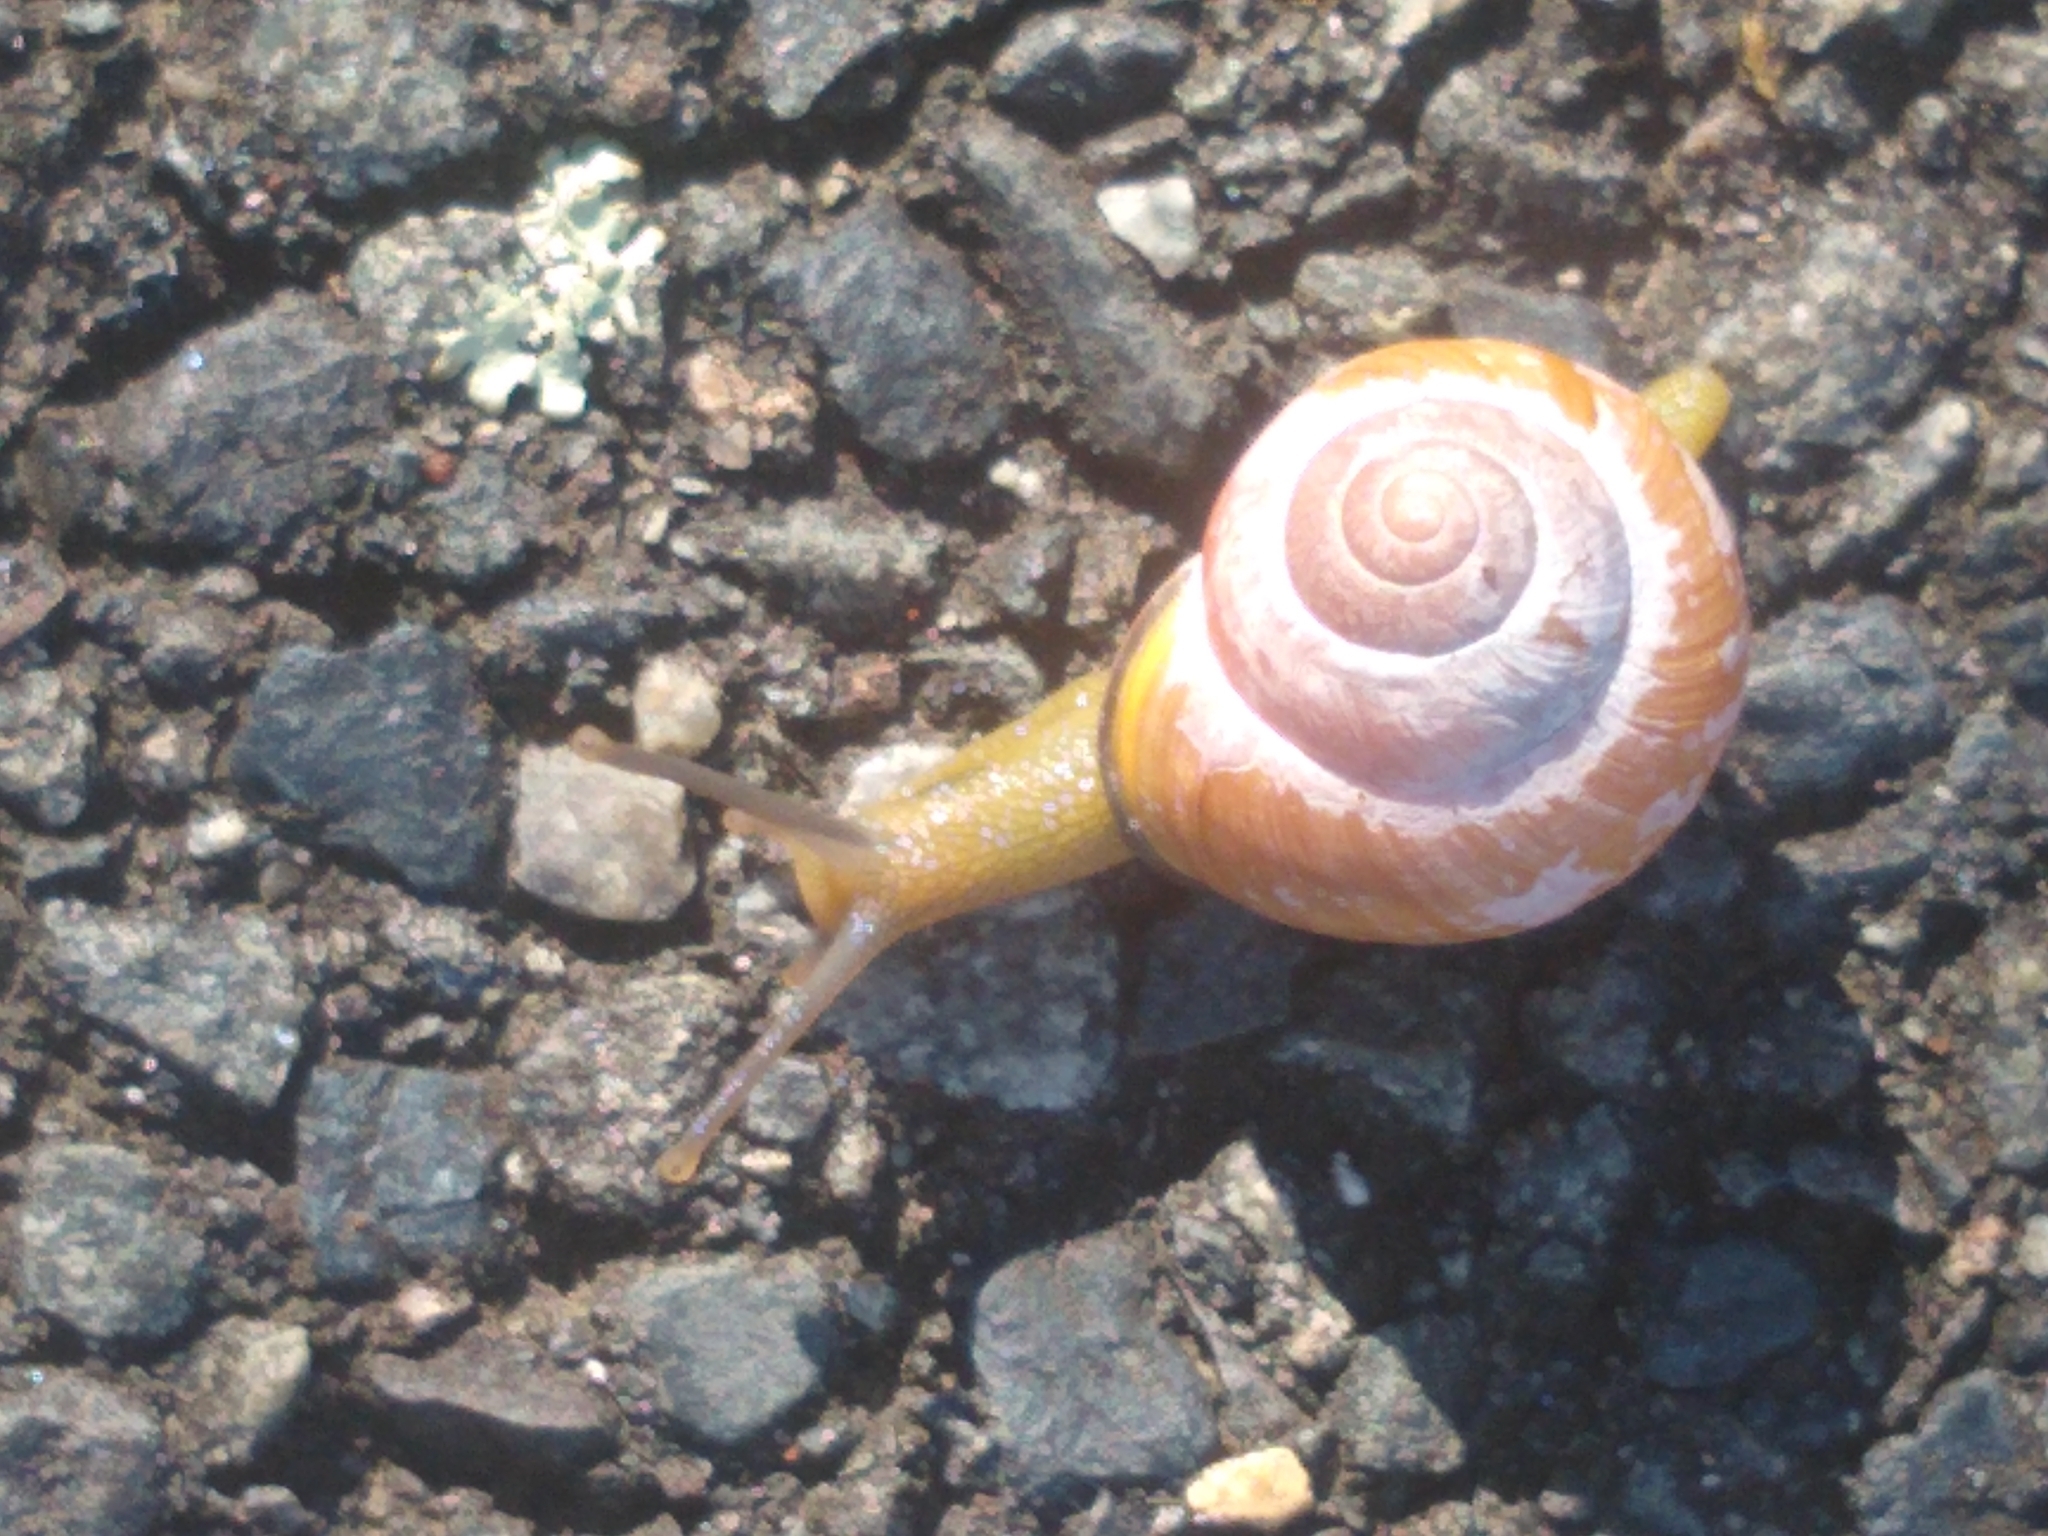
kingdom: Animalia
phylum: Mollusca
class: Gastropoda
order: Stylommatophora
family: Helicidae
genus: Cepaea
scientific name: Cepaea nemoralis
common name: Grovesnail
